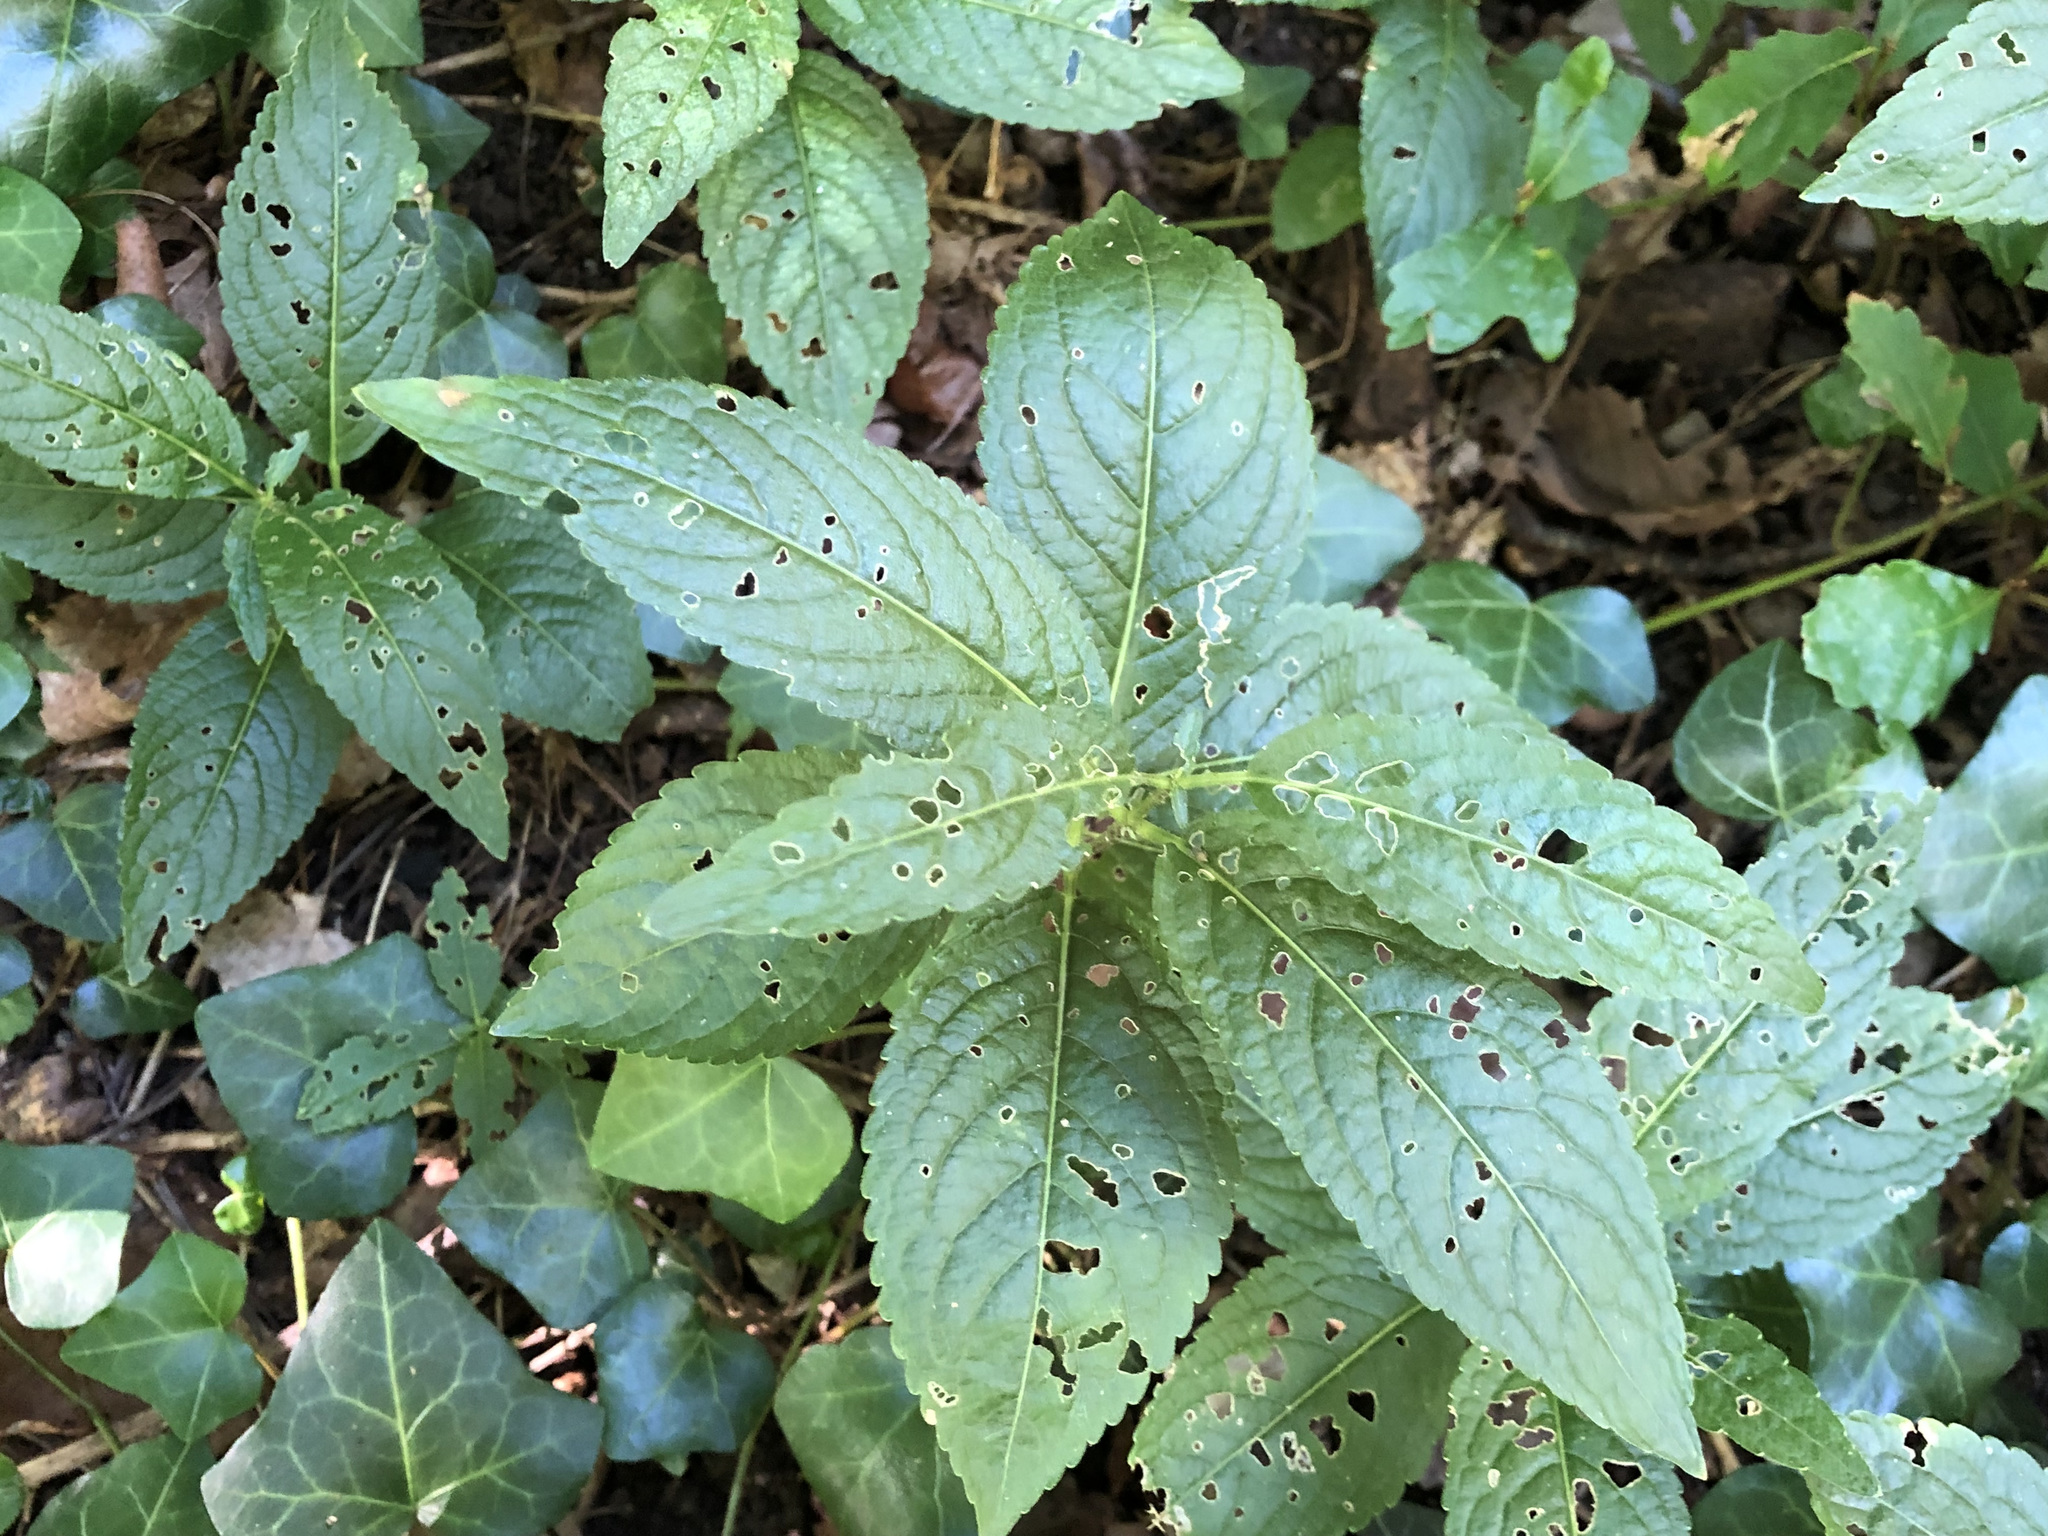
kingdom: Plantae
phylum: Tracheophyta
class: Magnoliopsida
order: Malpighiales
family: Euphorbiaceae
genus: Mercurialis
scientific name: Mercurialis perennis
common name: Dog mercury
